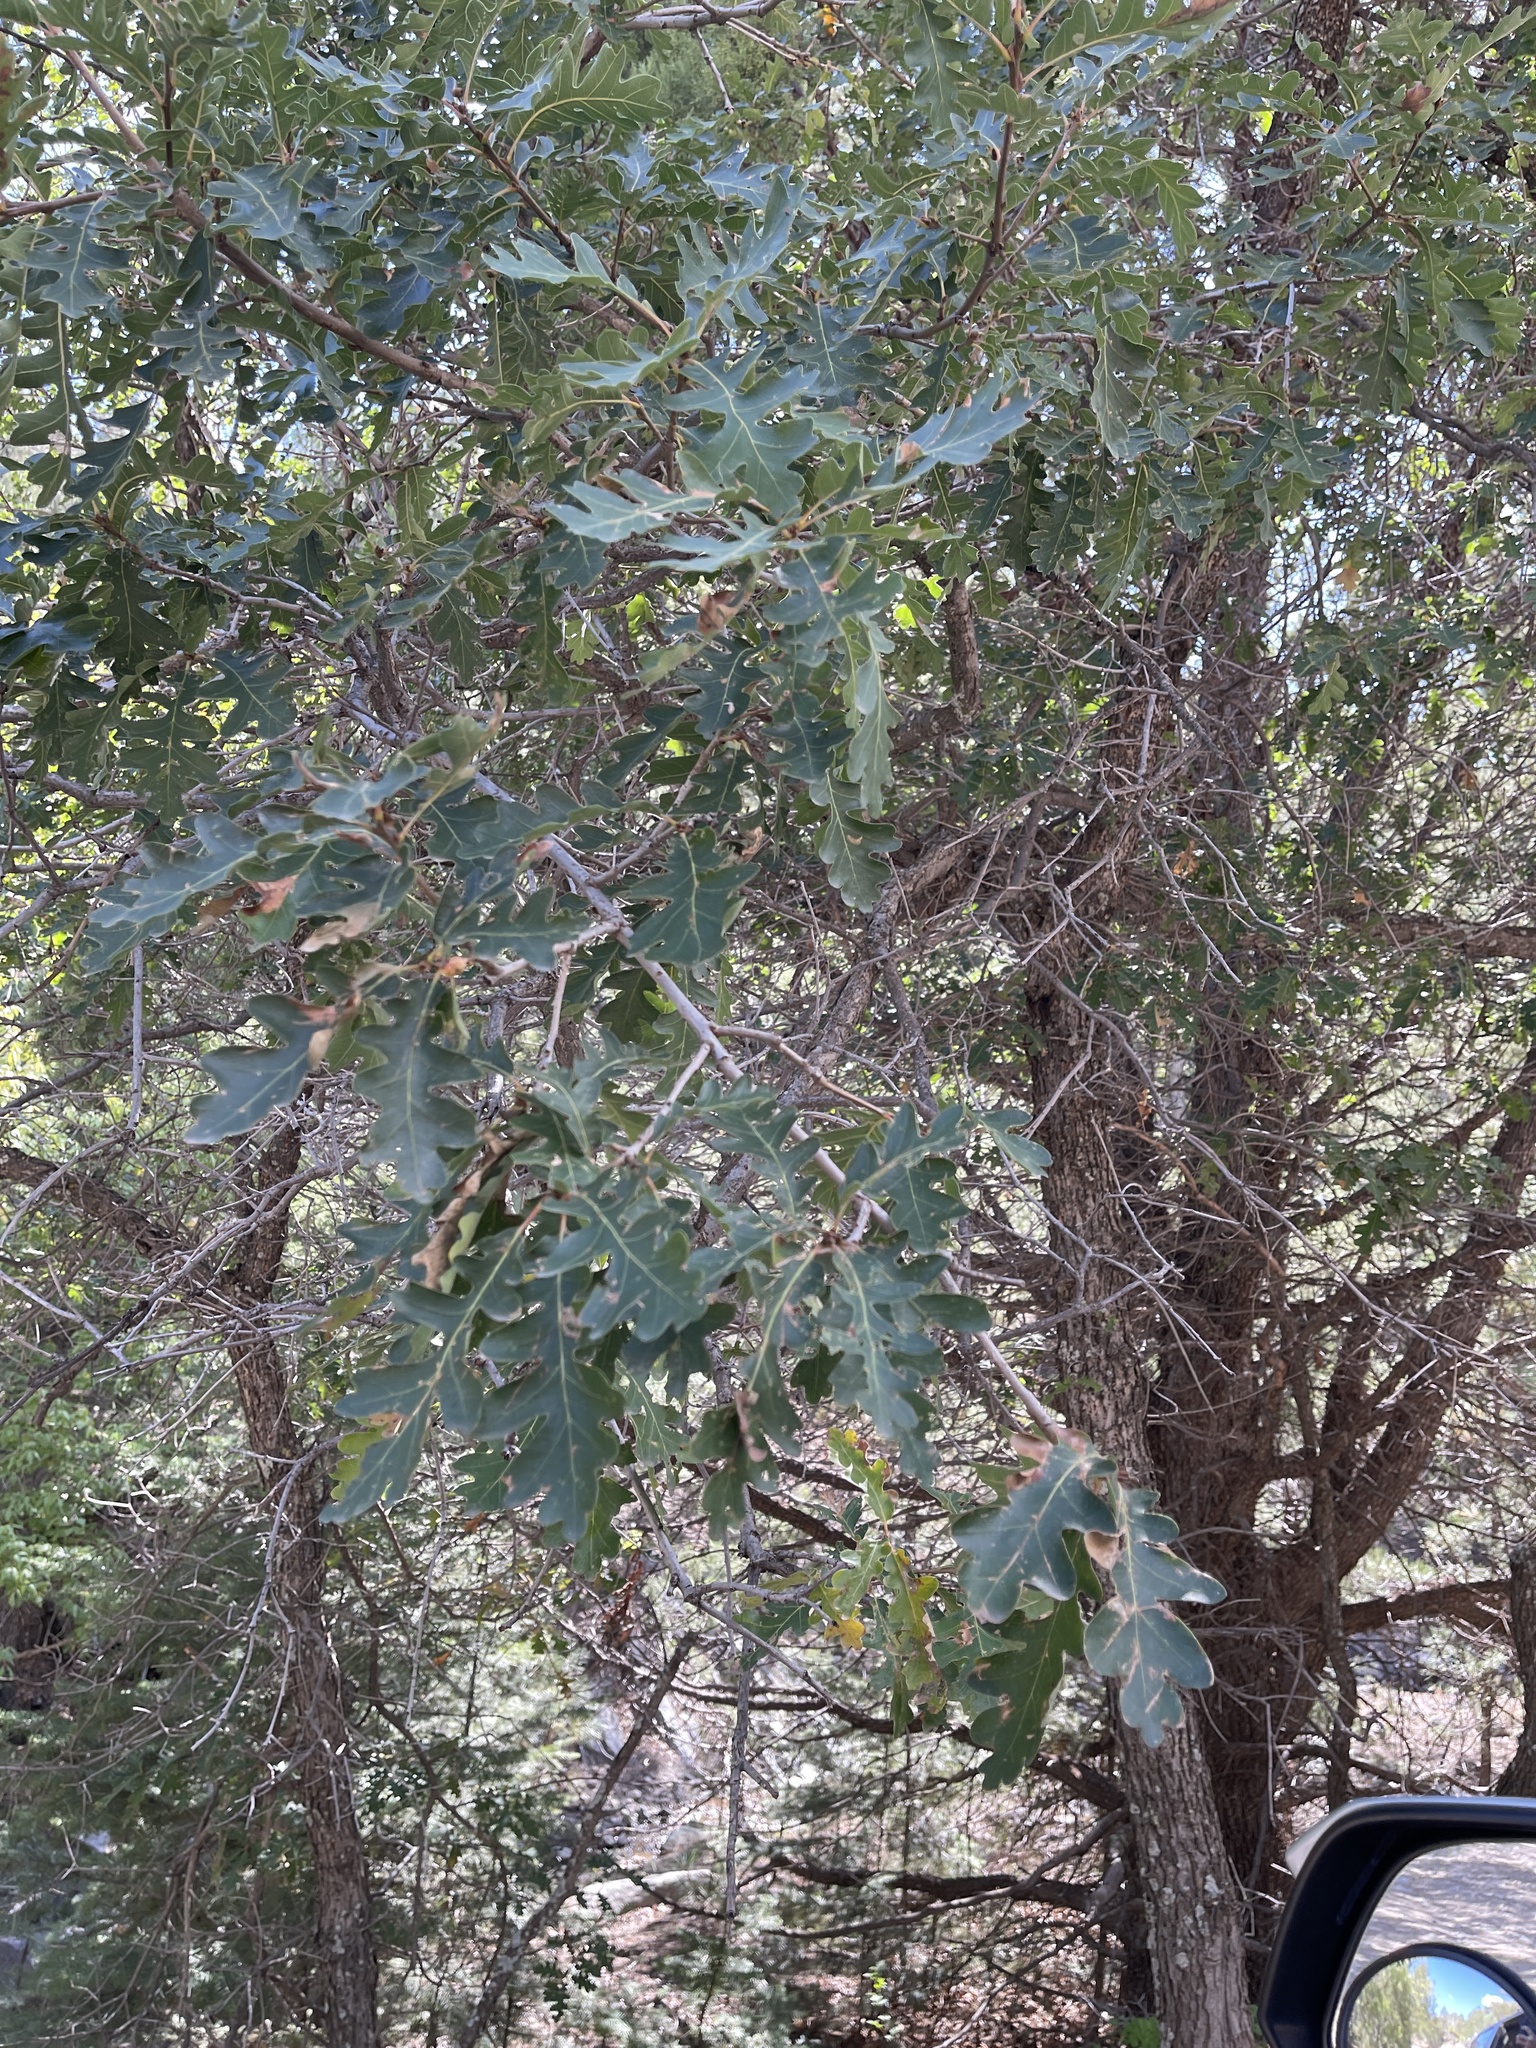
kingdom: Plantae
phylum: Tracheophyta
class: Magnoliopsida
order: Fagales
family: Fagaceae
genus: Quercus
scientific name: Quercus gambelii
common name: Gambel oak
